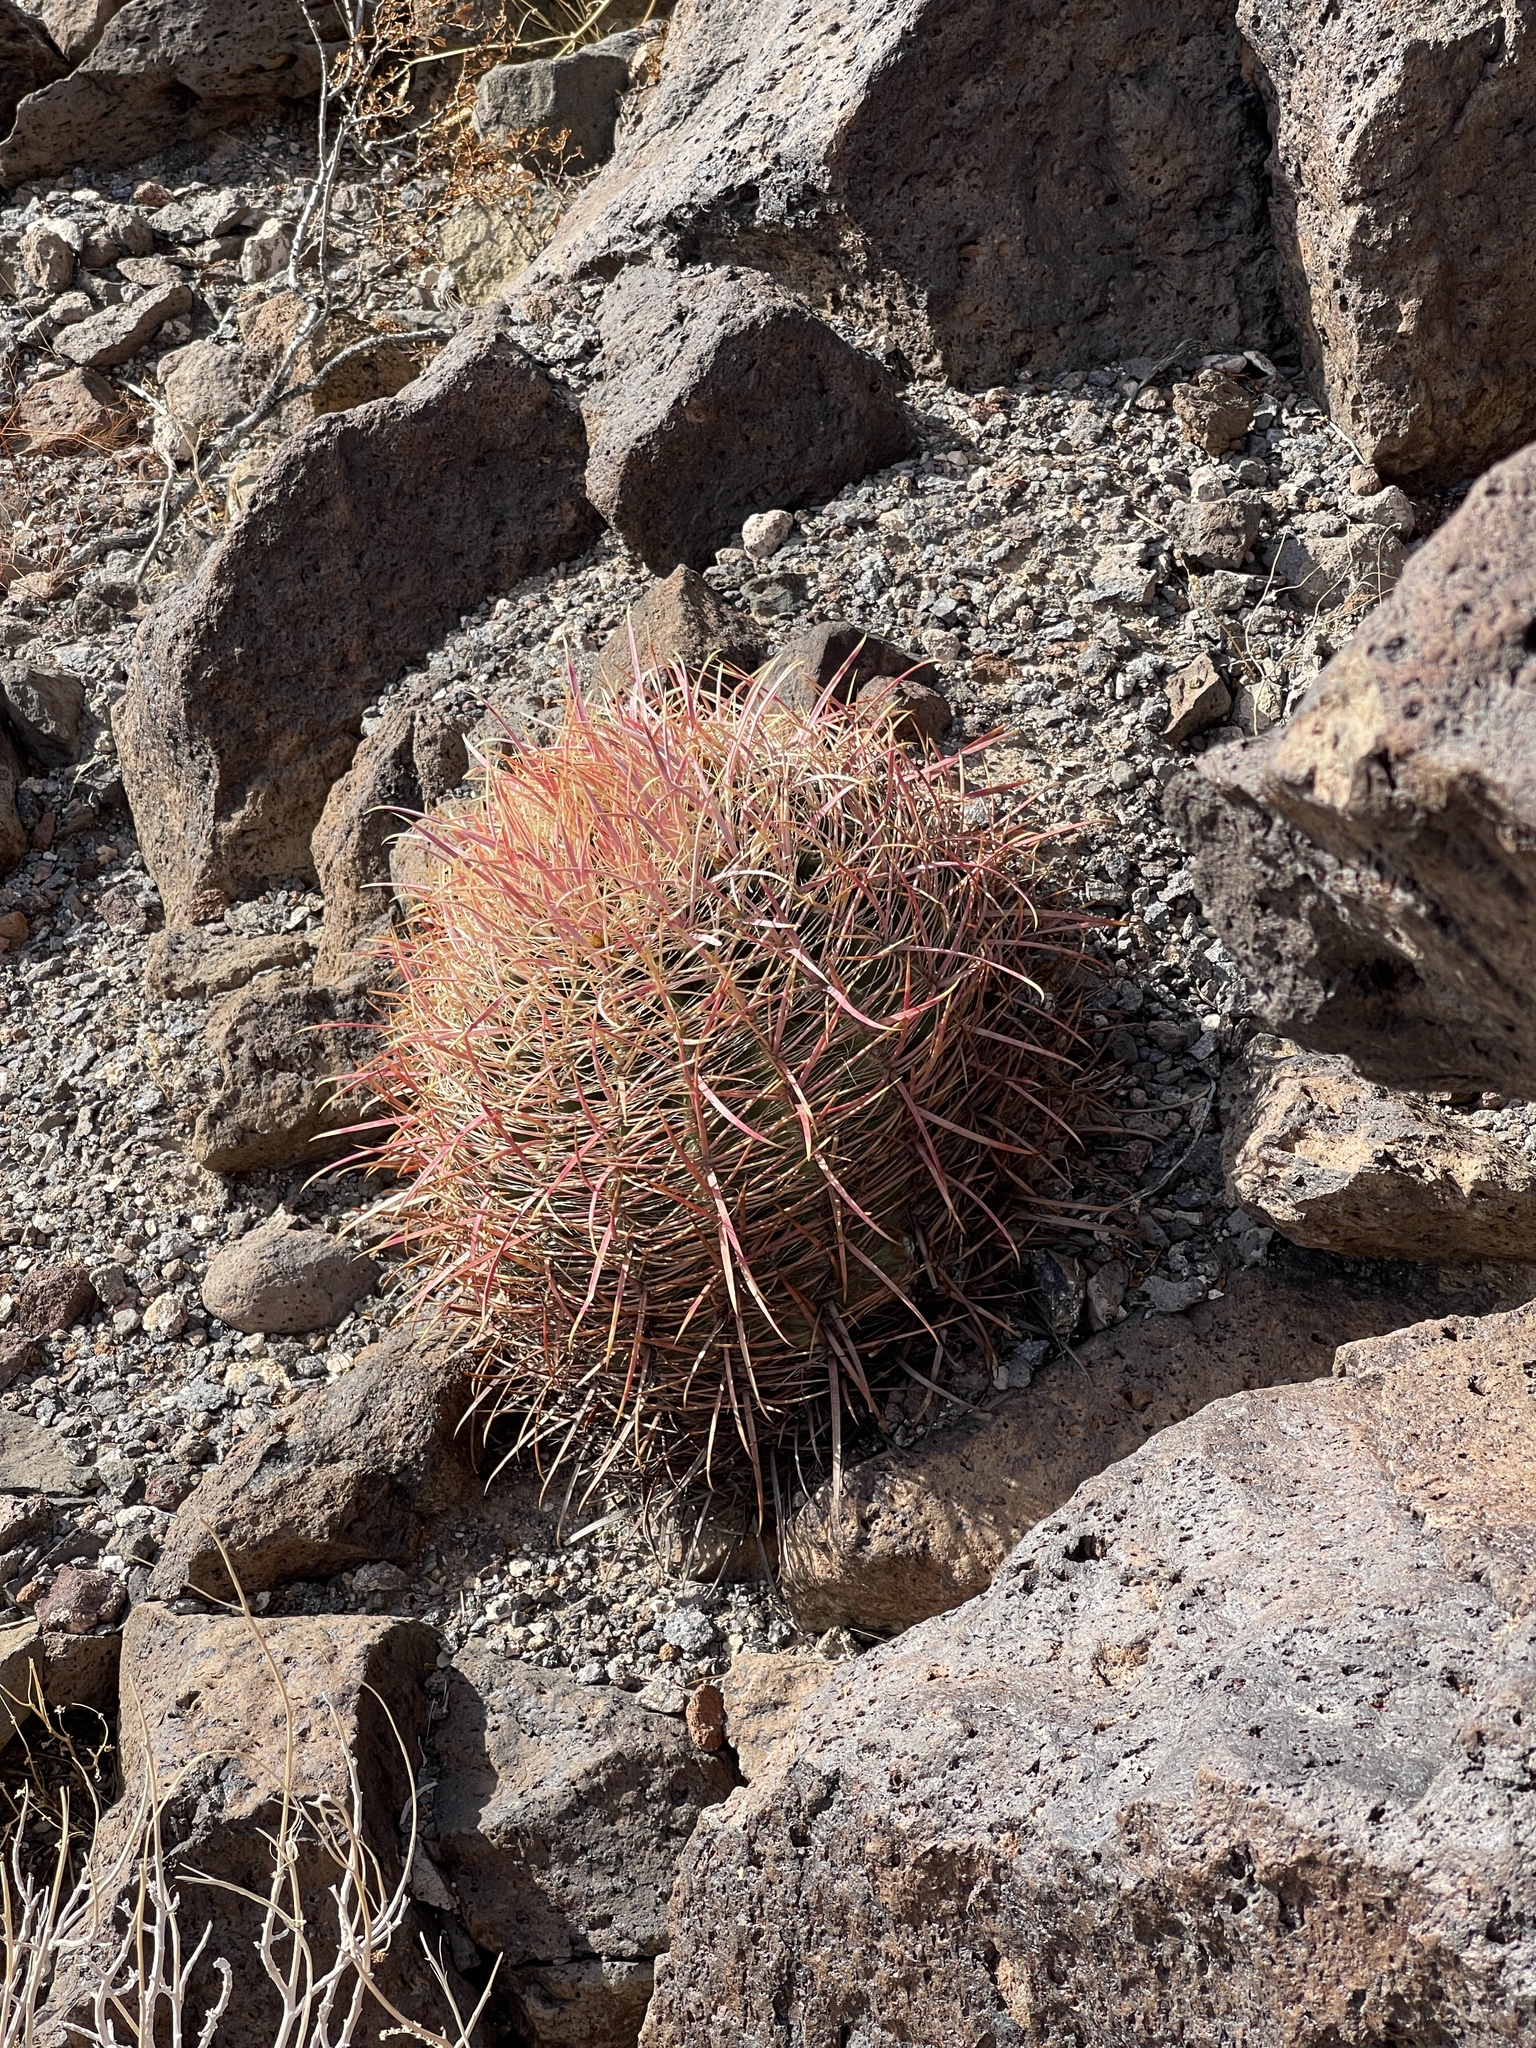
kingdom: Plantae
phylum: Tracheophyta
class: Magnoliopsida
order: Caryophyllales
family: Cactaceae
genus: Ferocactus
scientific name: Ferocactus cylindraceus
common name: California barrel cactus
